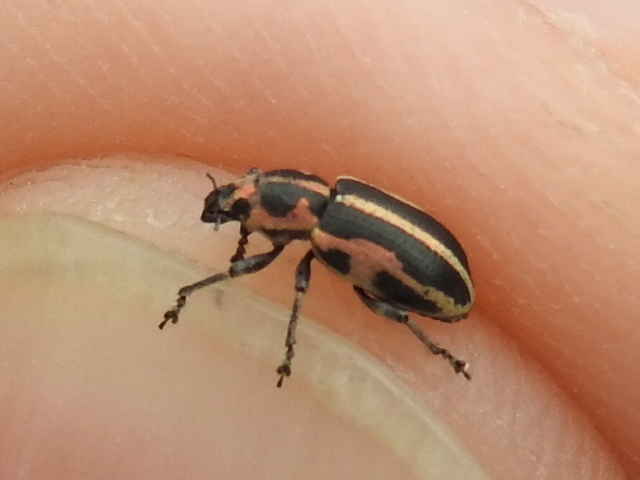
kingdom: Animalia
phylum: Arthropoda
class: Insecta
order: Coleoptera
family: Curculionidae
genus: Eudiagogus
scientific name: Eudiagogus pulcher
